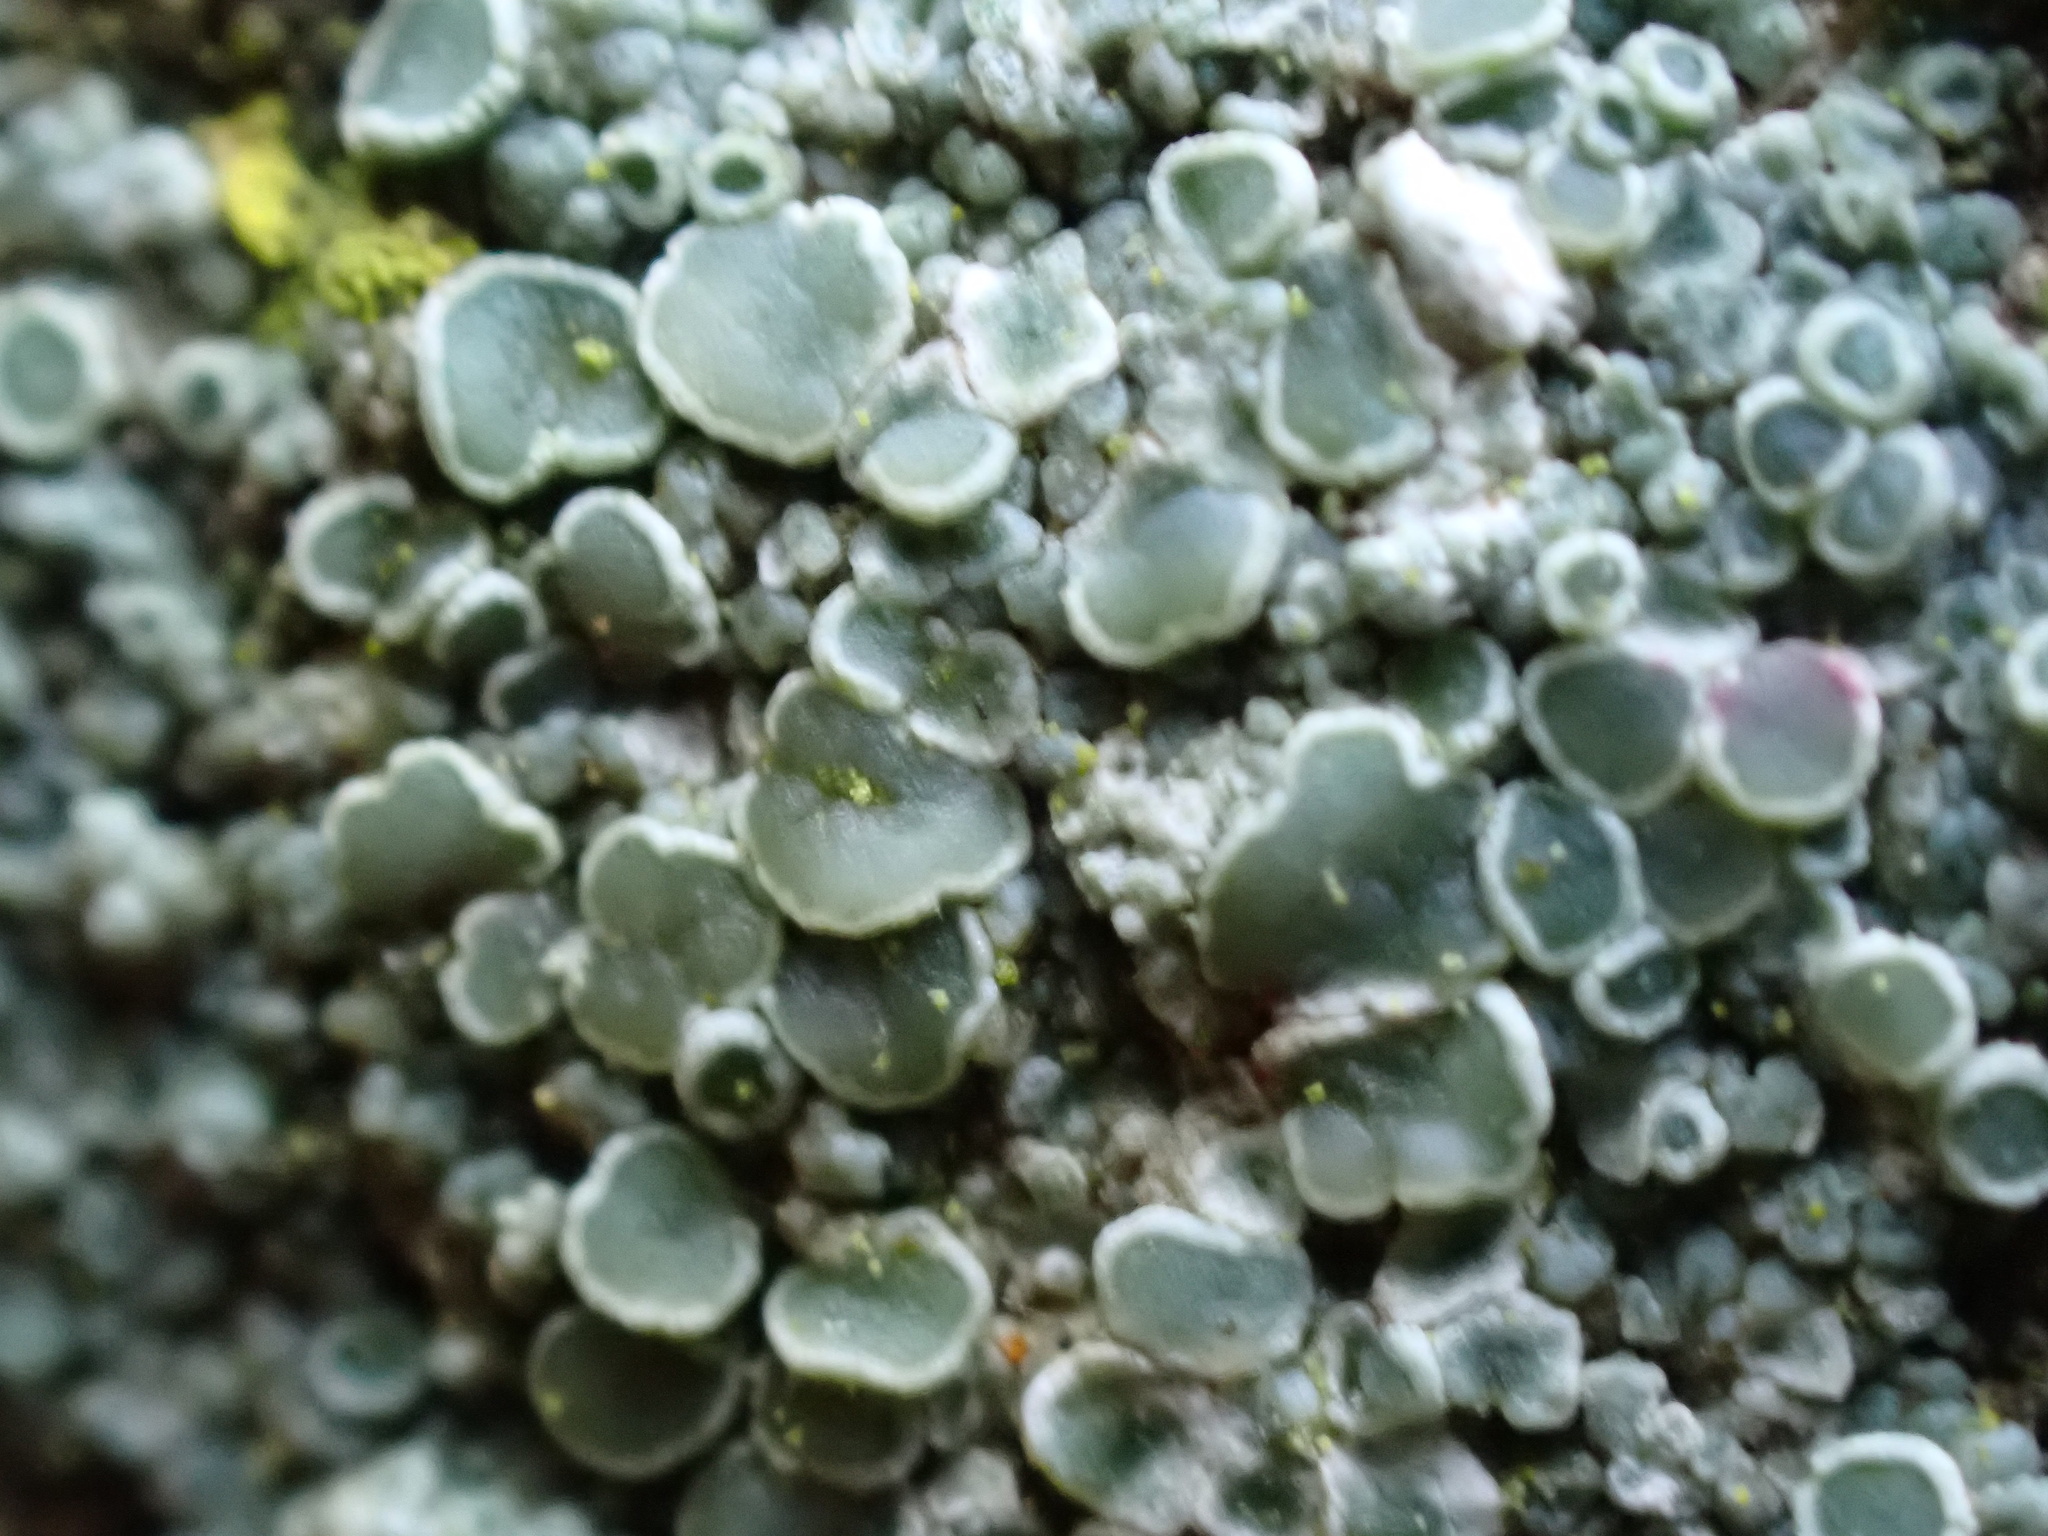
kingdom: Fungi
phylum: Ascomycota
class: Lecanoromycetes
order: Lecanorales
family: Lecanoraceae
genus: Polyozosia
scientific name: Polyozosia albescens
